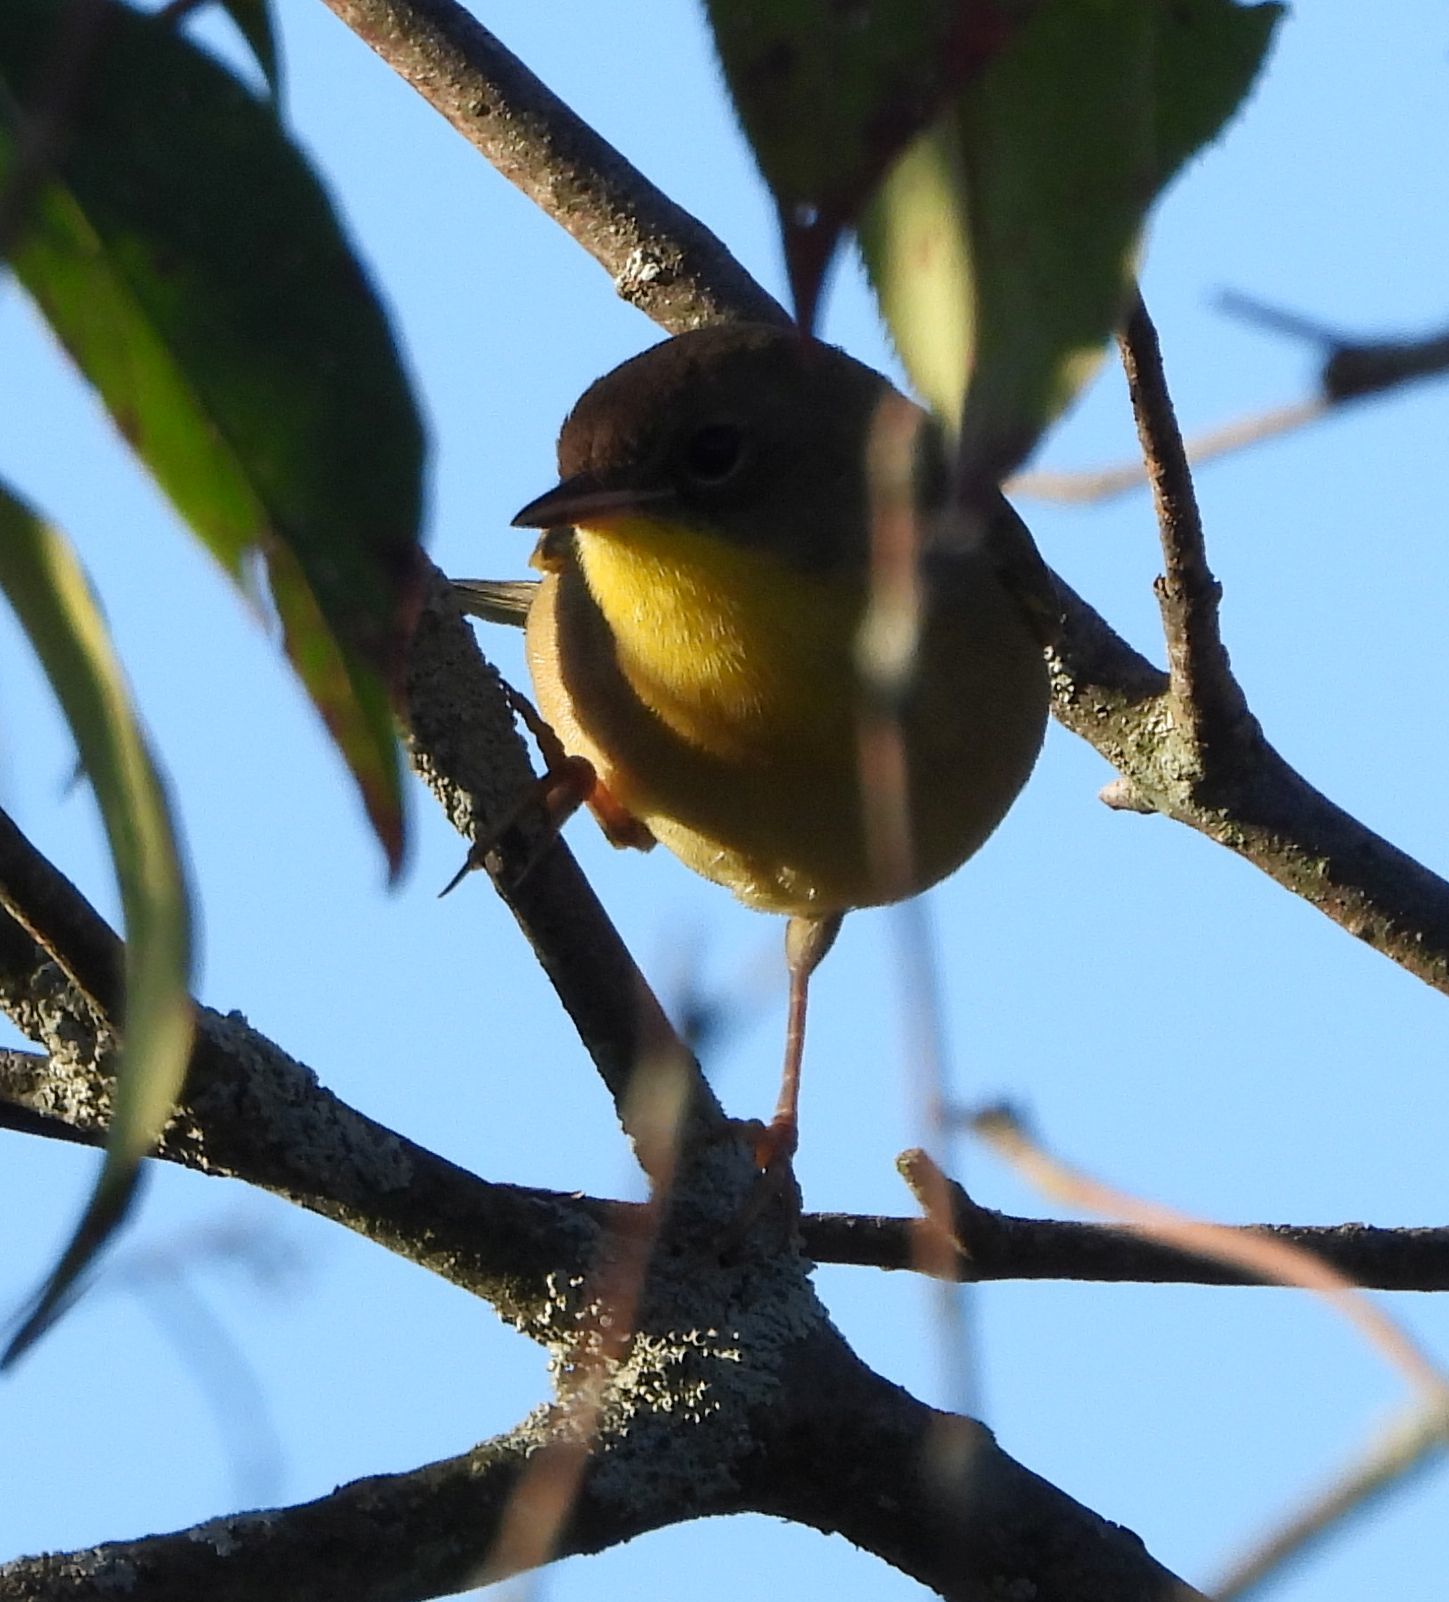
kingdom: Animalia
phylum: Chordata
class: Aves
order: Passeriformes
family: Parulidae
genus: Geothlypis
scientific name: Geothlypis trichas
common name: Common yellowthroat
